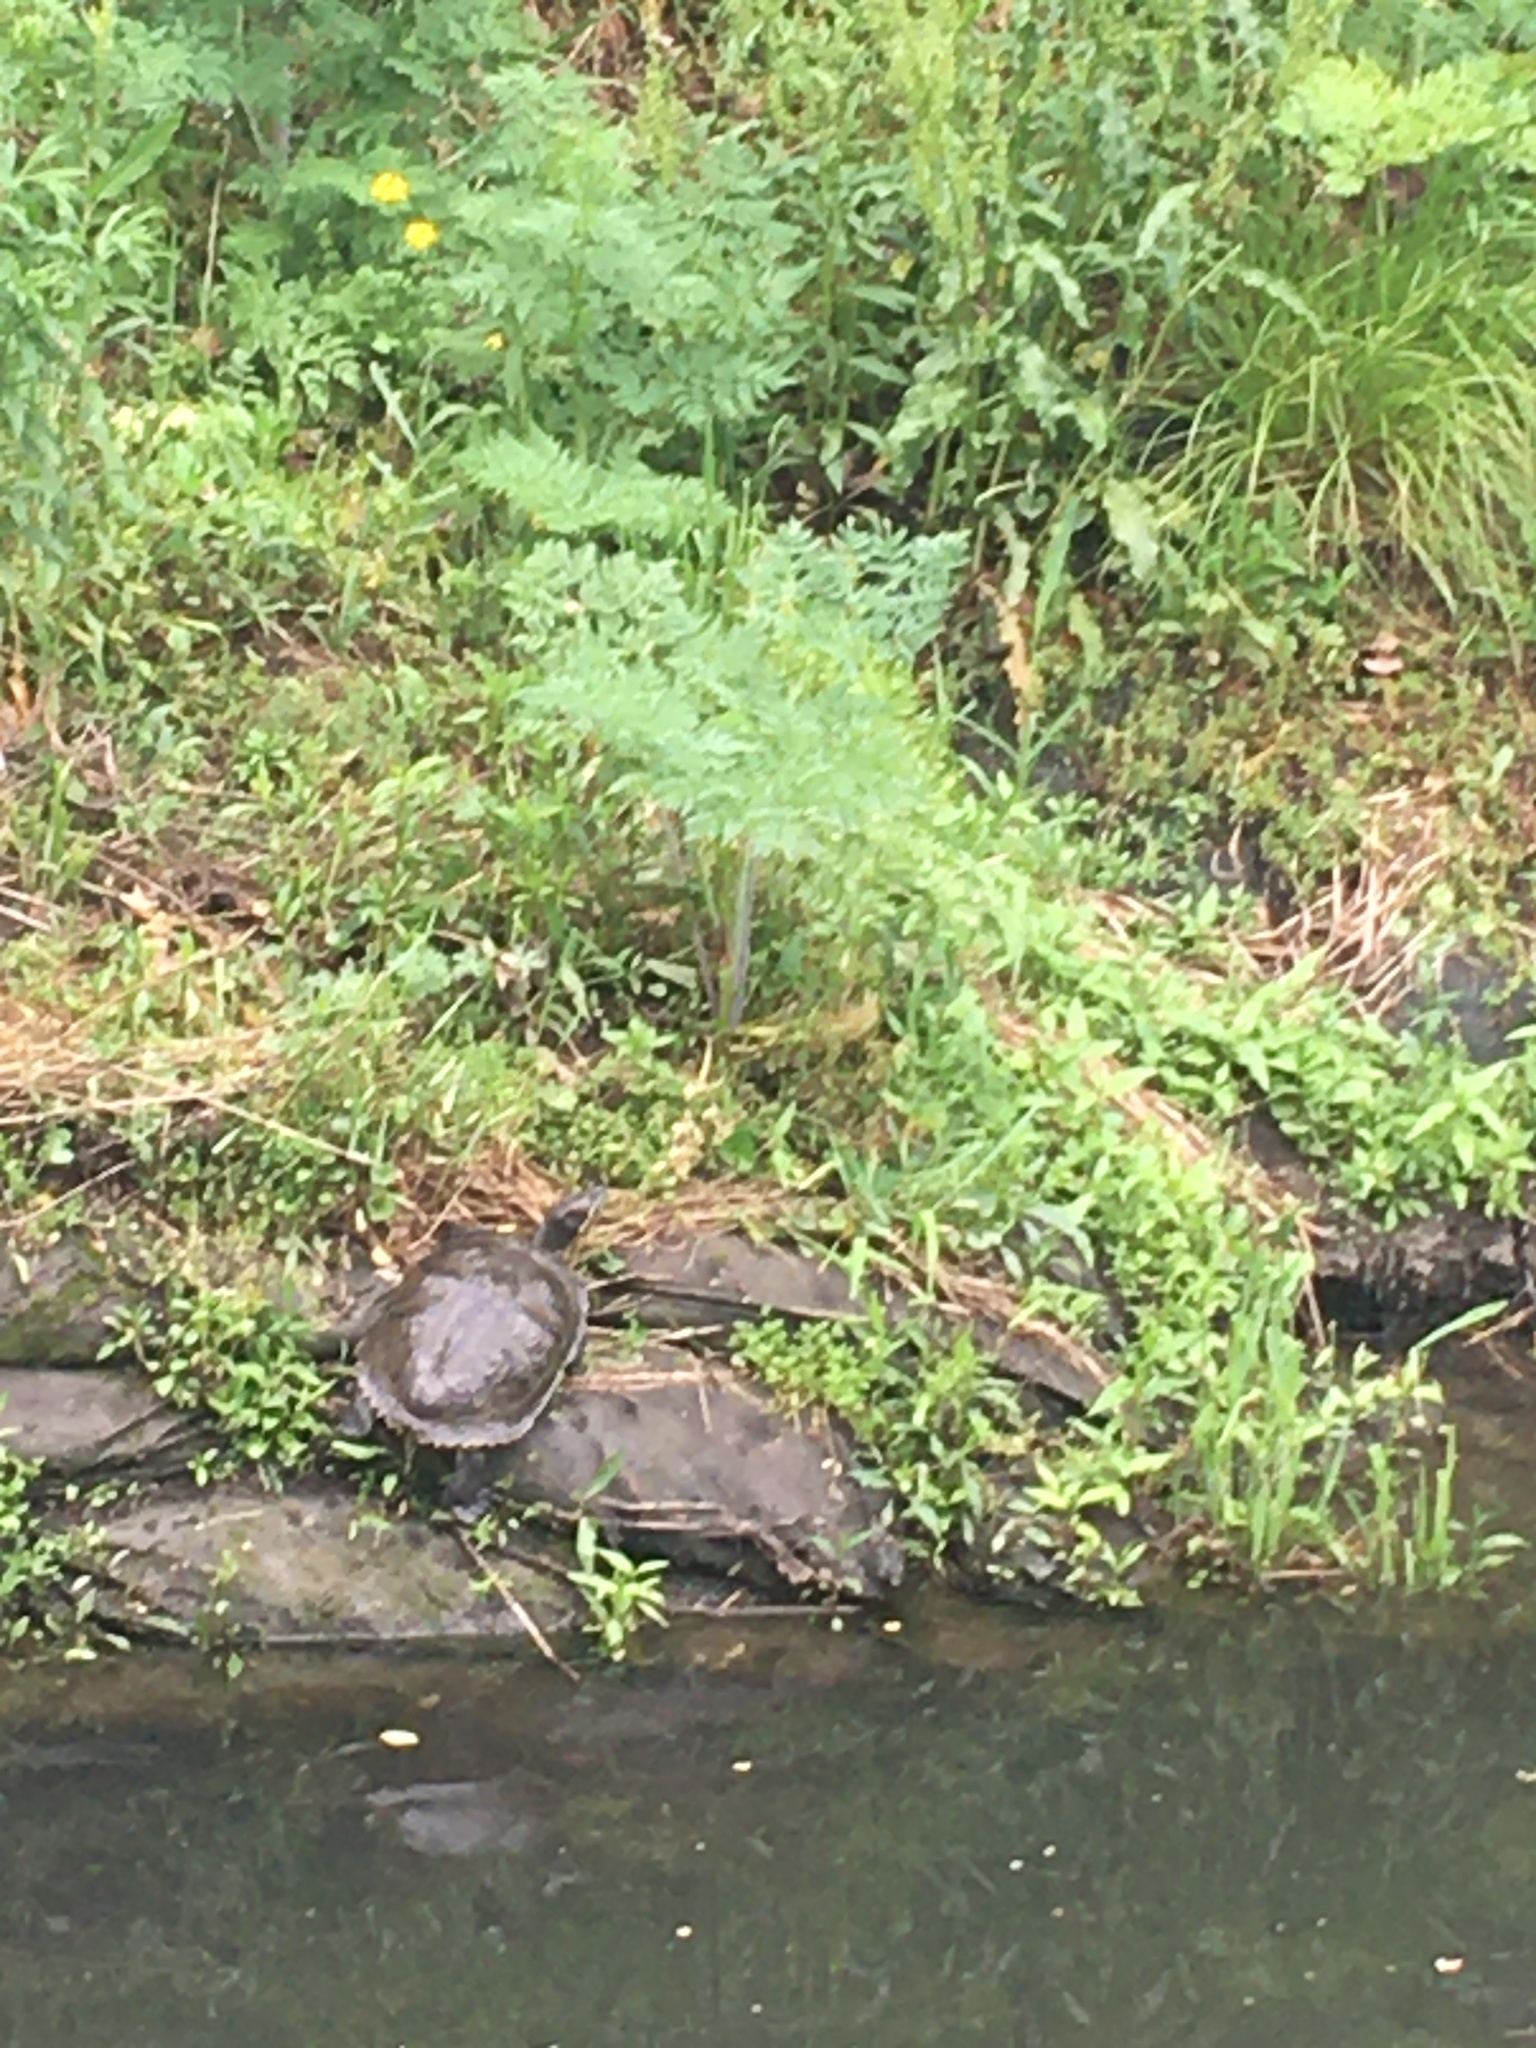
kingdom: Animalia
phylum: Chordata
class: Testudines
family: Emydidae
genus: Trachemys
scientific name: Trachemys scripta
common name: Slider
